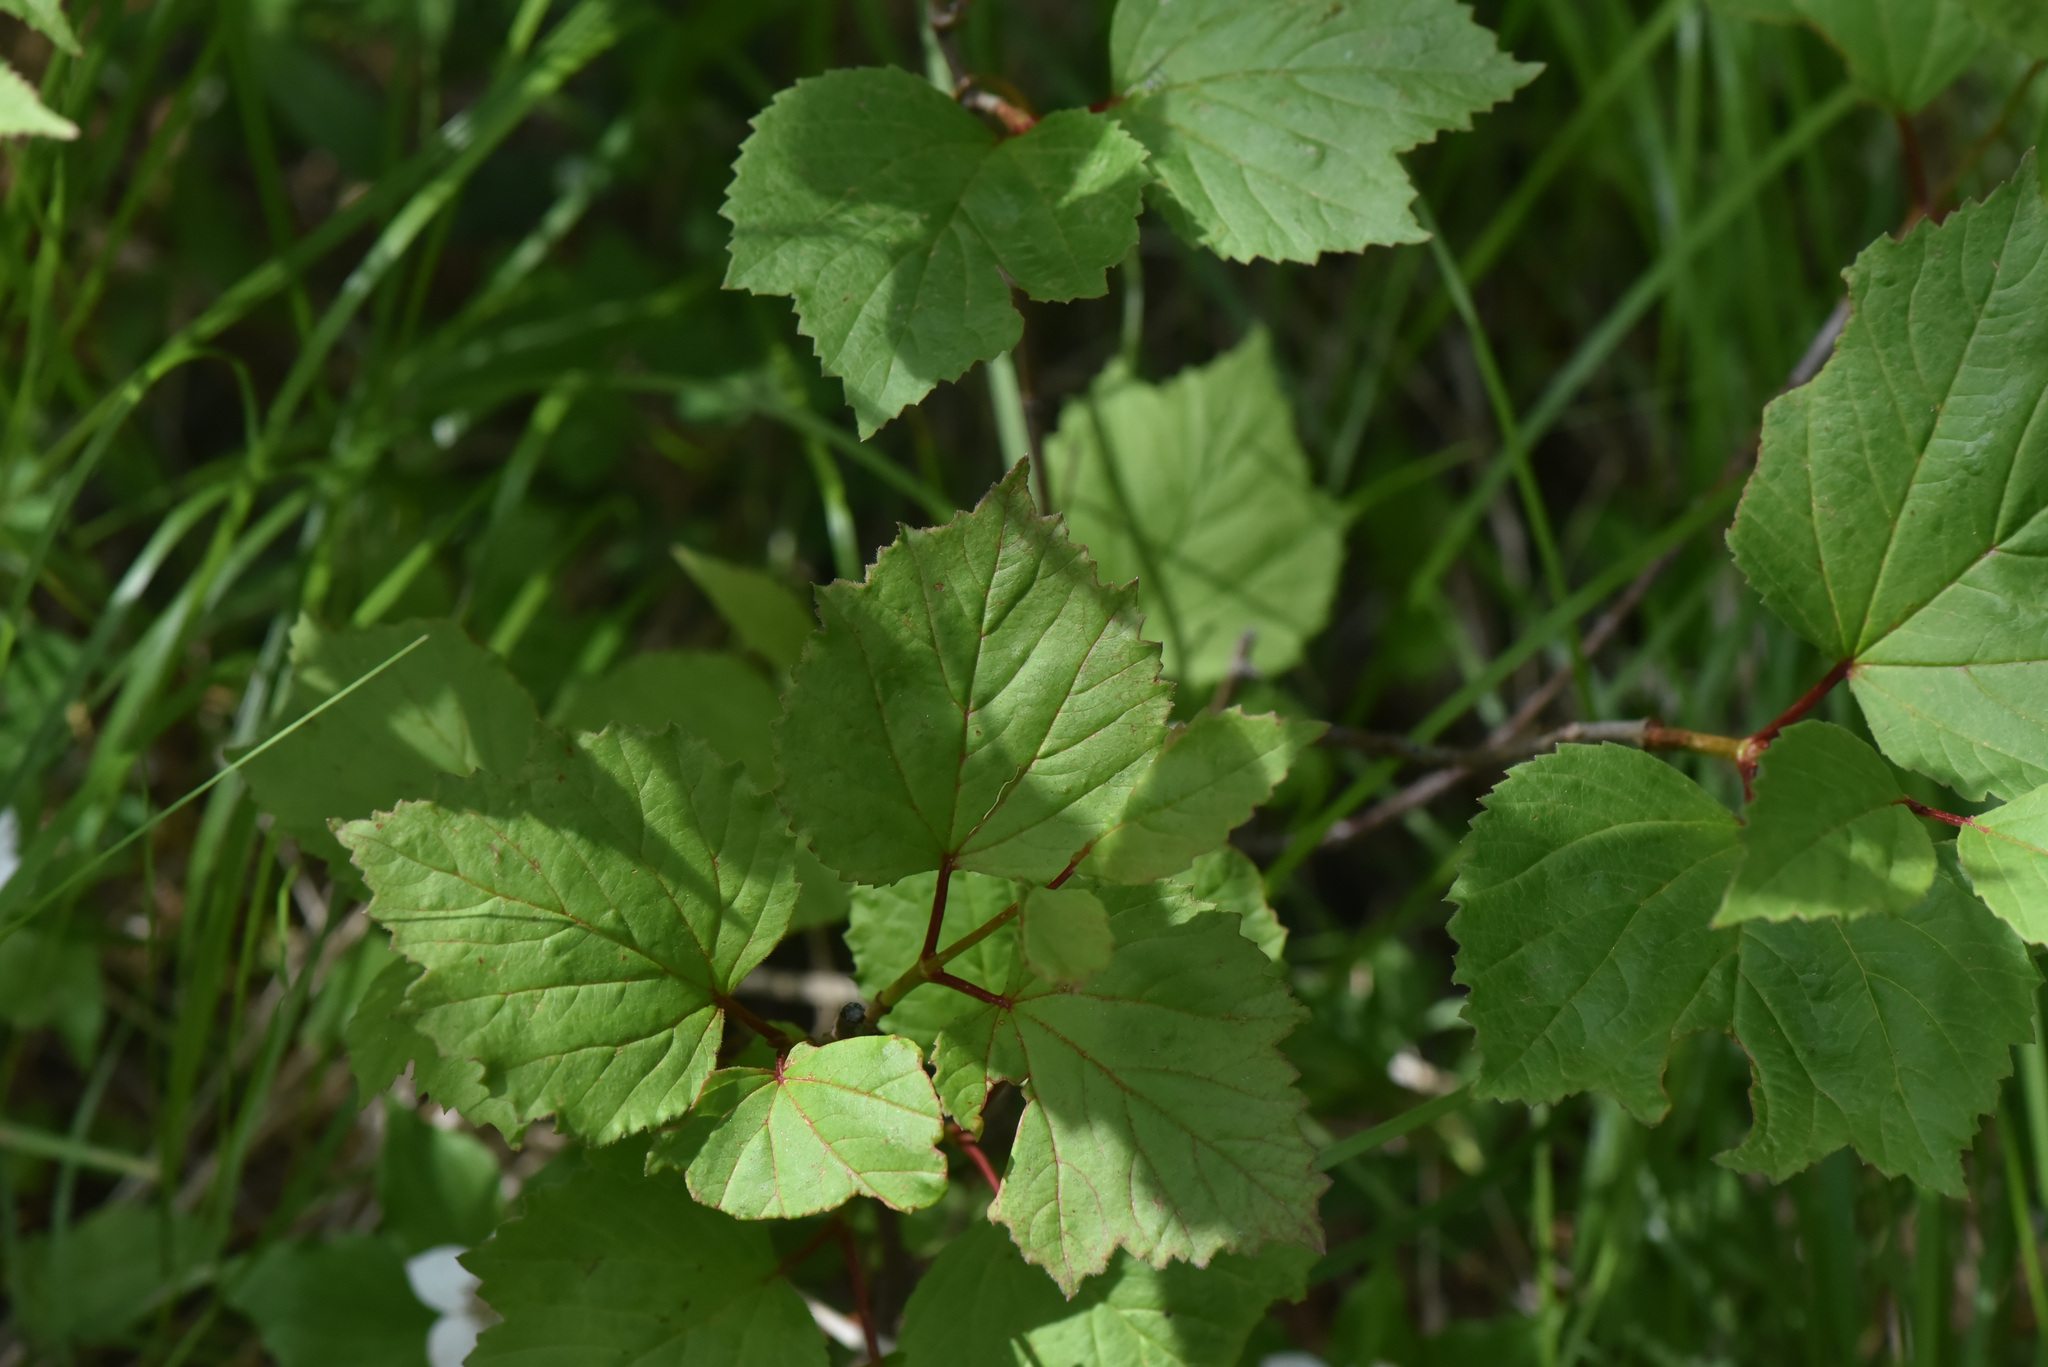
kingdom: Plantae
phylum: Tracheophyta
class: Magnoliopsida
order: Dipsacales
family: Viburnaceae
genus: Viburnum
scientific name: Viburnum edule
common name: Mooseberry
